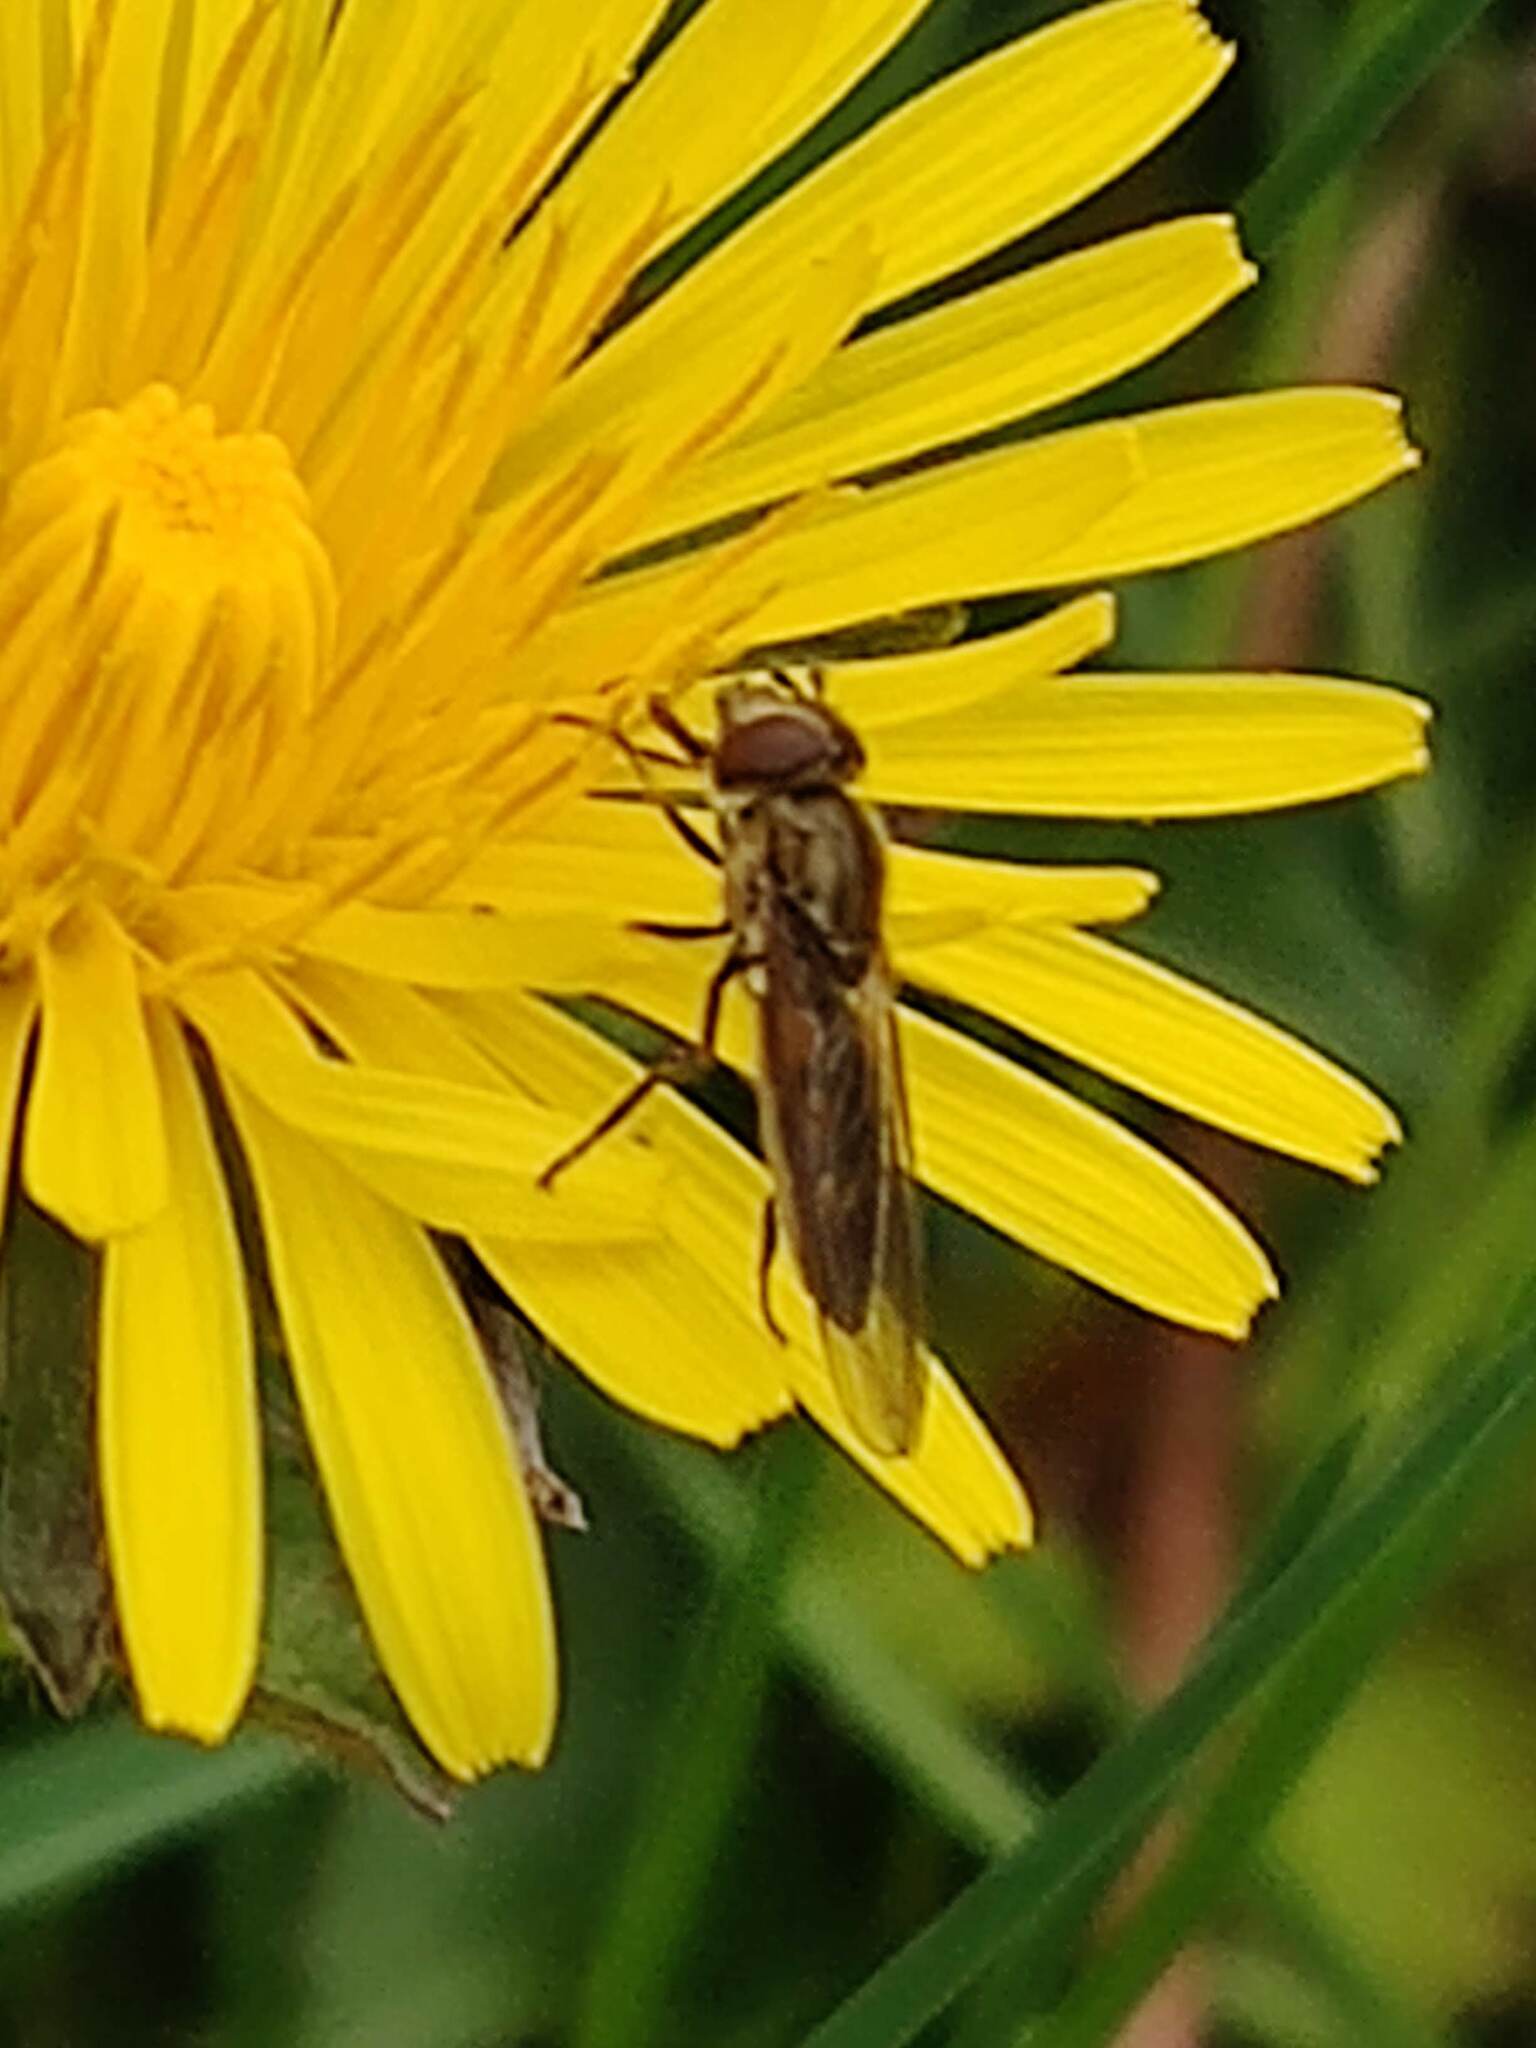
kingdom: Animalia
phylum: Arthropoda
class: Insecta
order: Diptera
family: Syrphidae
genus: Platycheirus
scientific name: Platycheirus manicatus
